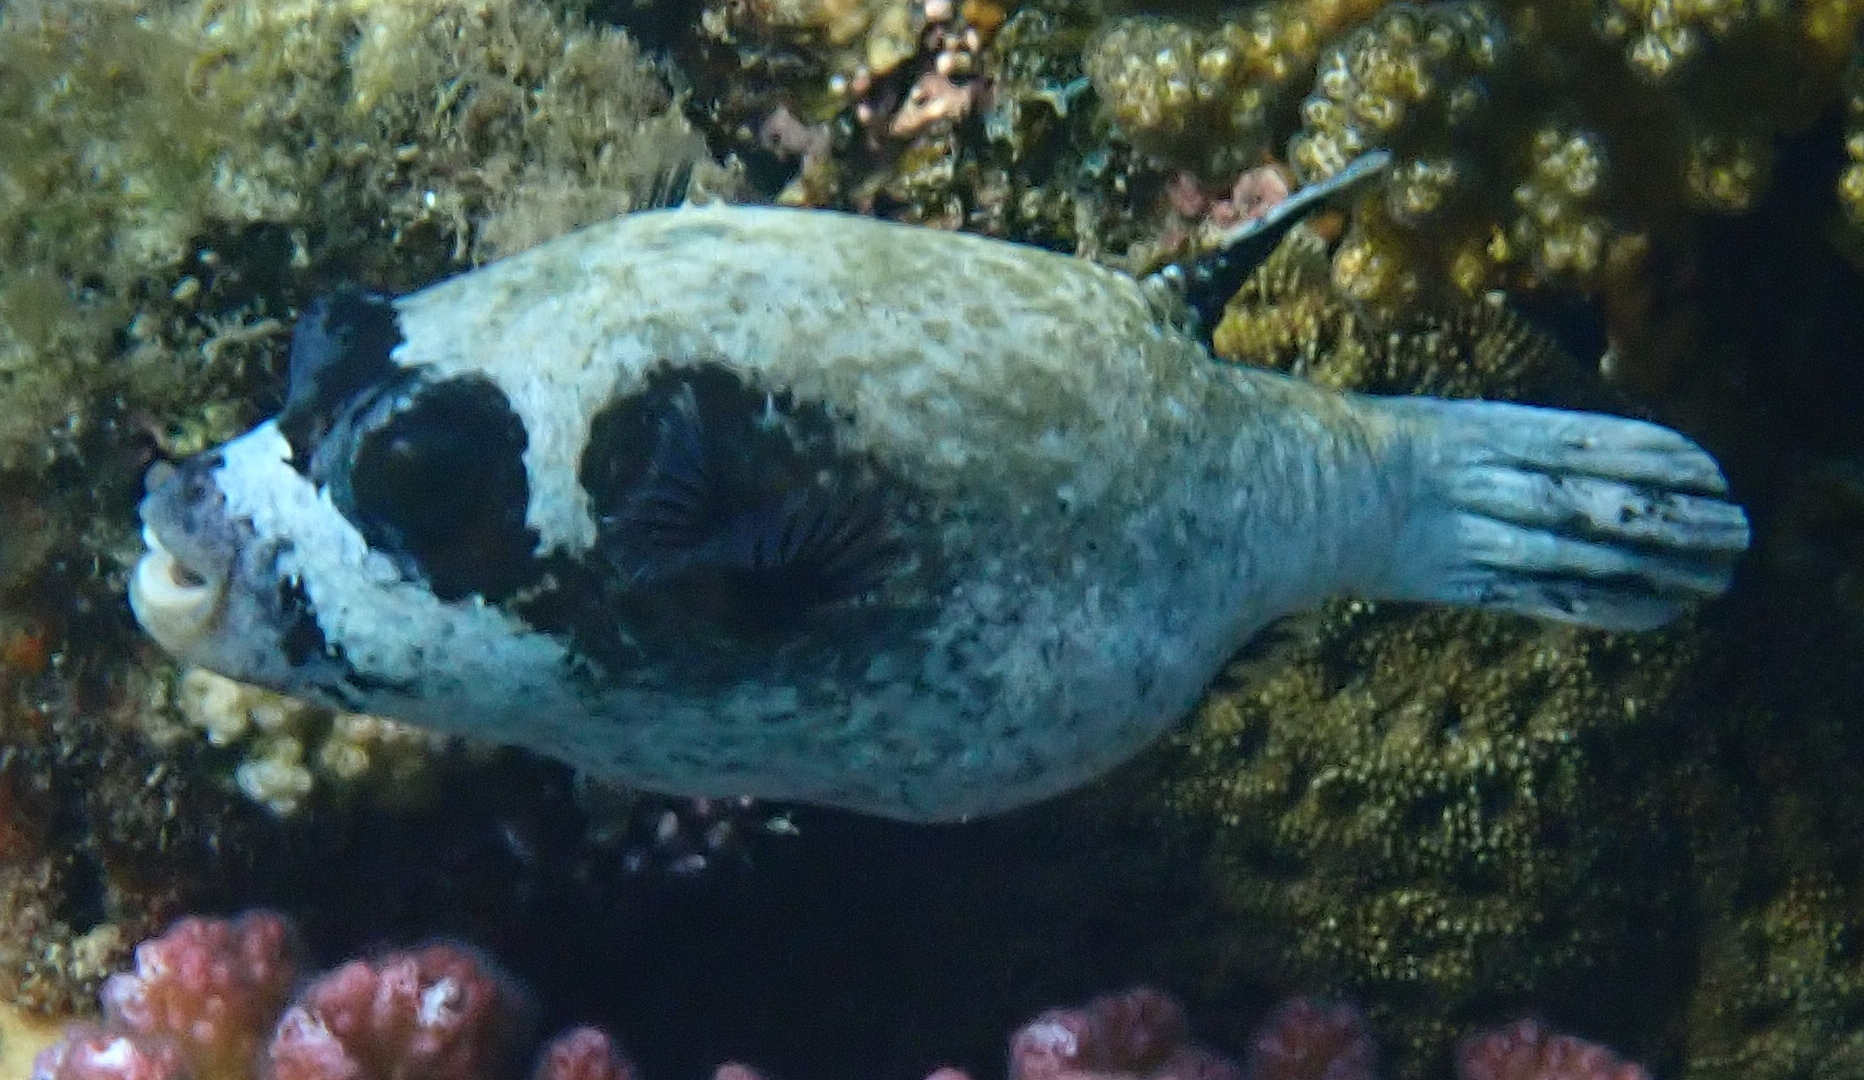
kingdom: Animalia
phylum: Chordata
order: Tetraodontiformes
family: Tetraodontidae
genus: Arothron
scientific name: Arothron diadematus
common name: Masked puffer
